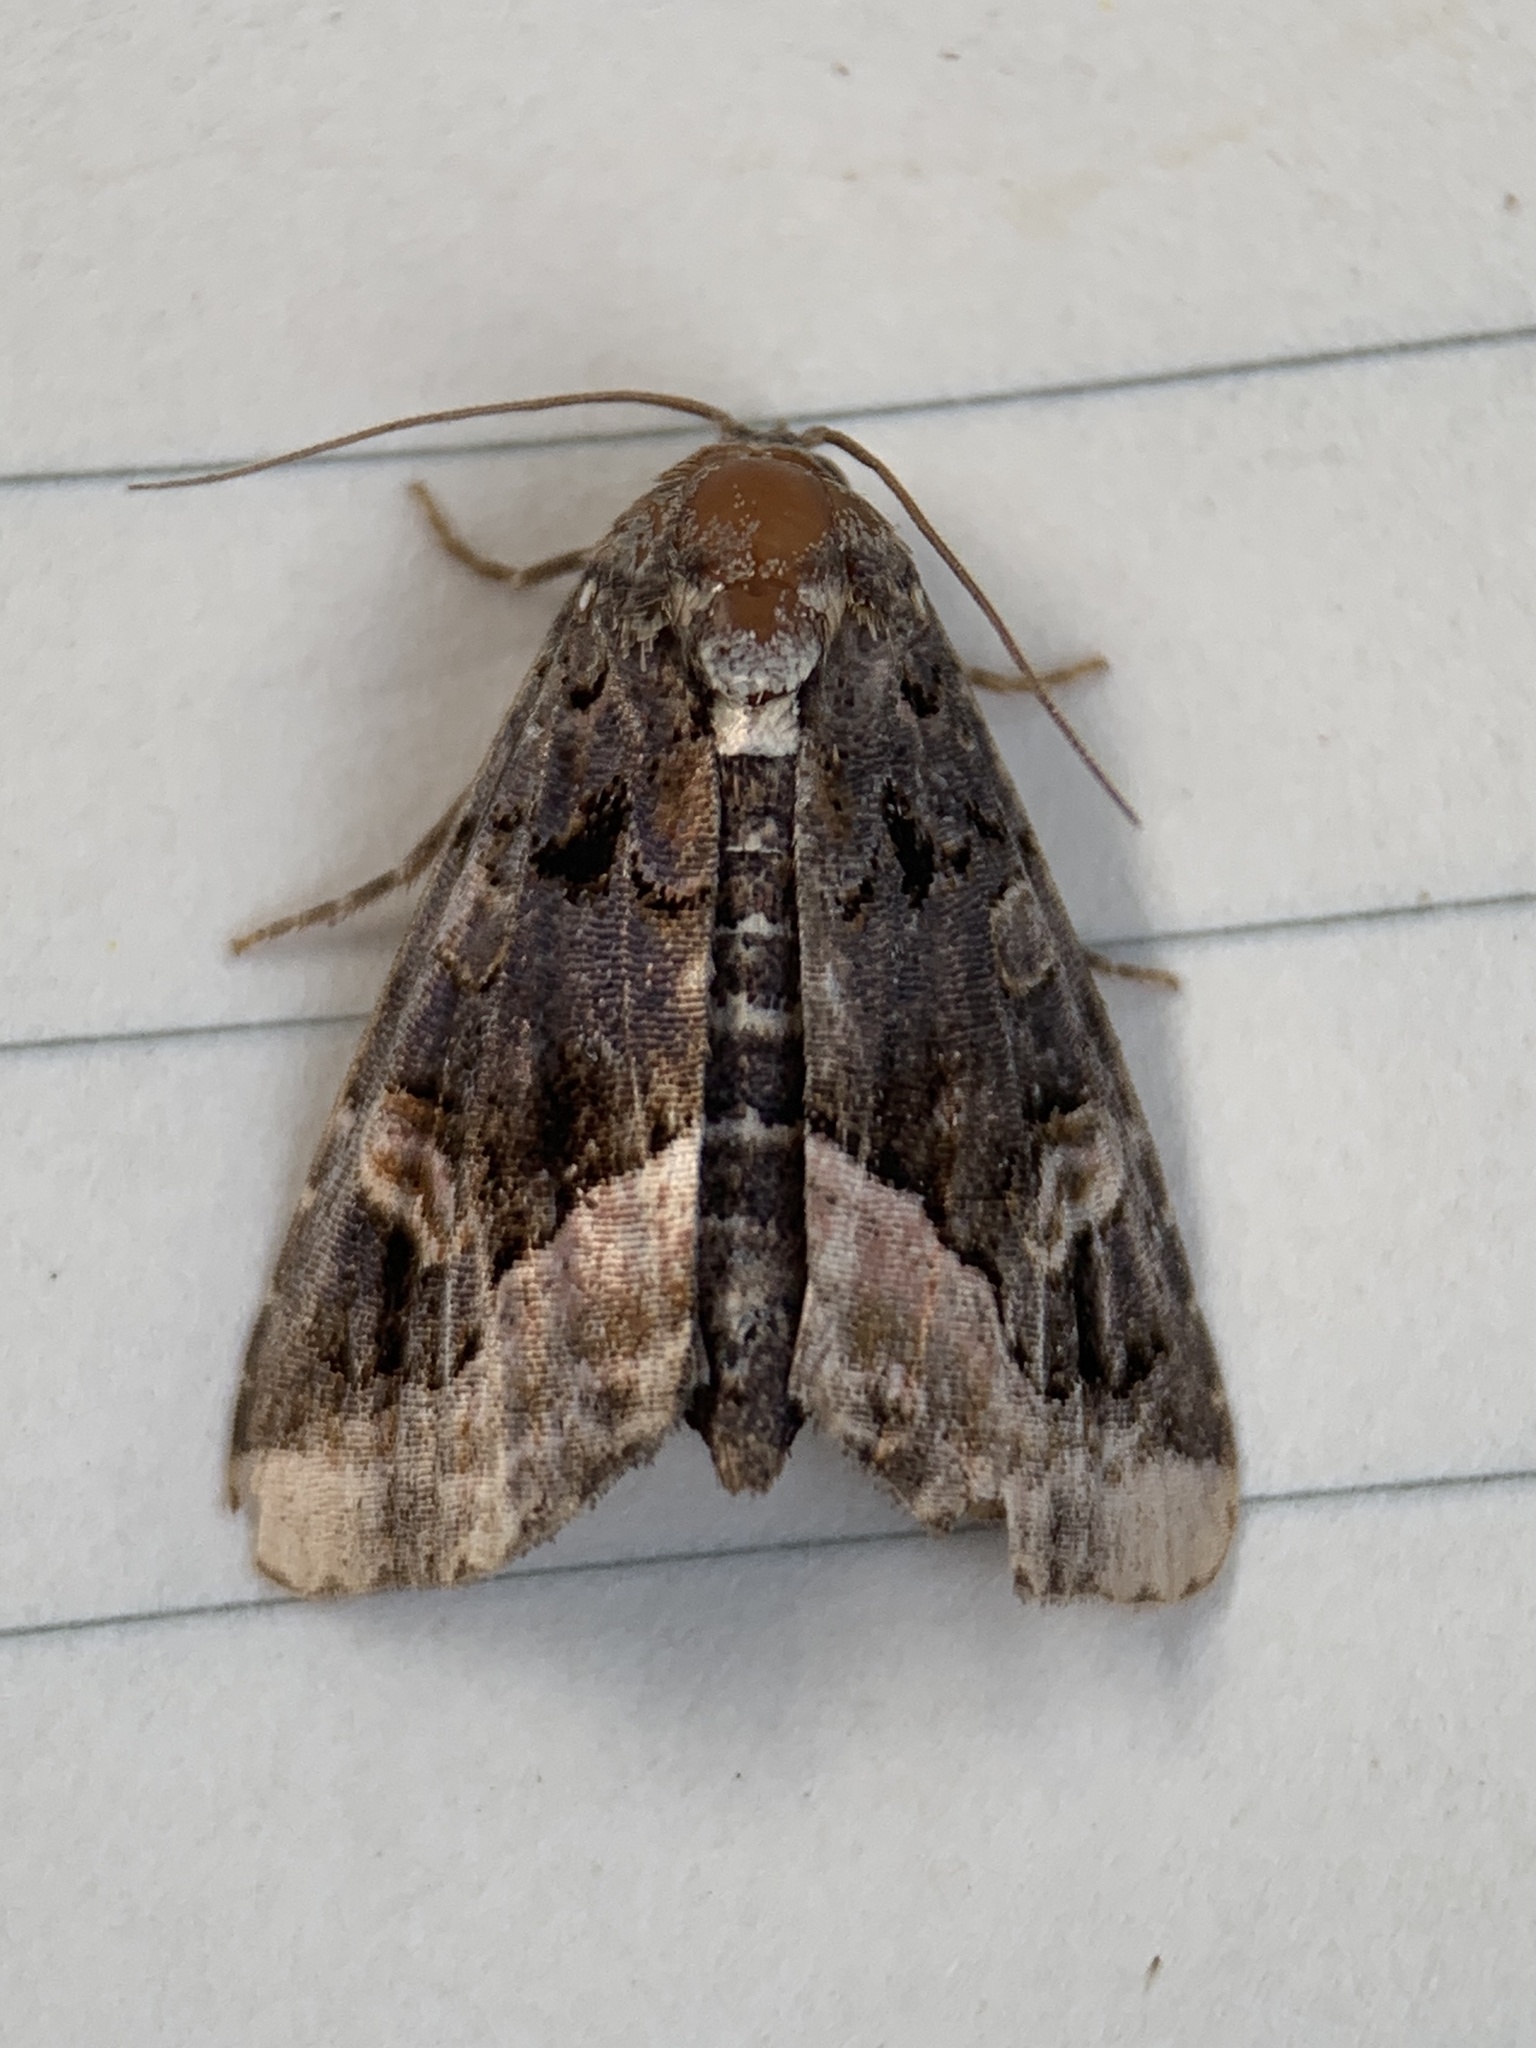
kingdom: Animalia
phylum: Arthropoda
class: Insecta
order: Lepidoptera
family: Noctuidae
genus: Homophoberia
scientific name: Homophoberia apicosa
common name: Black wedge-spot
